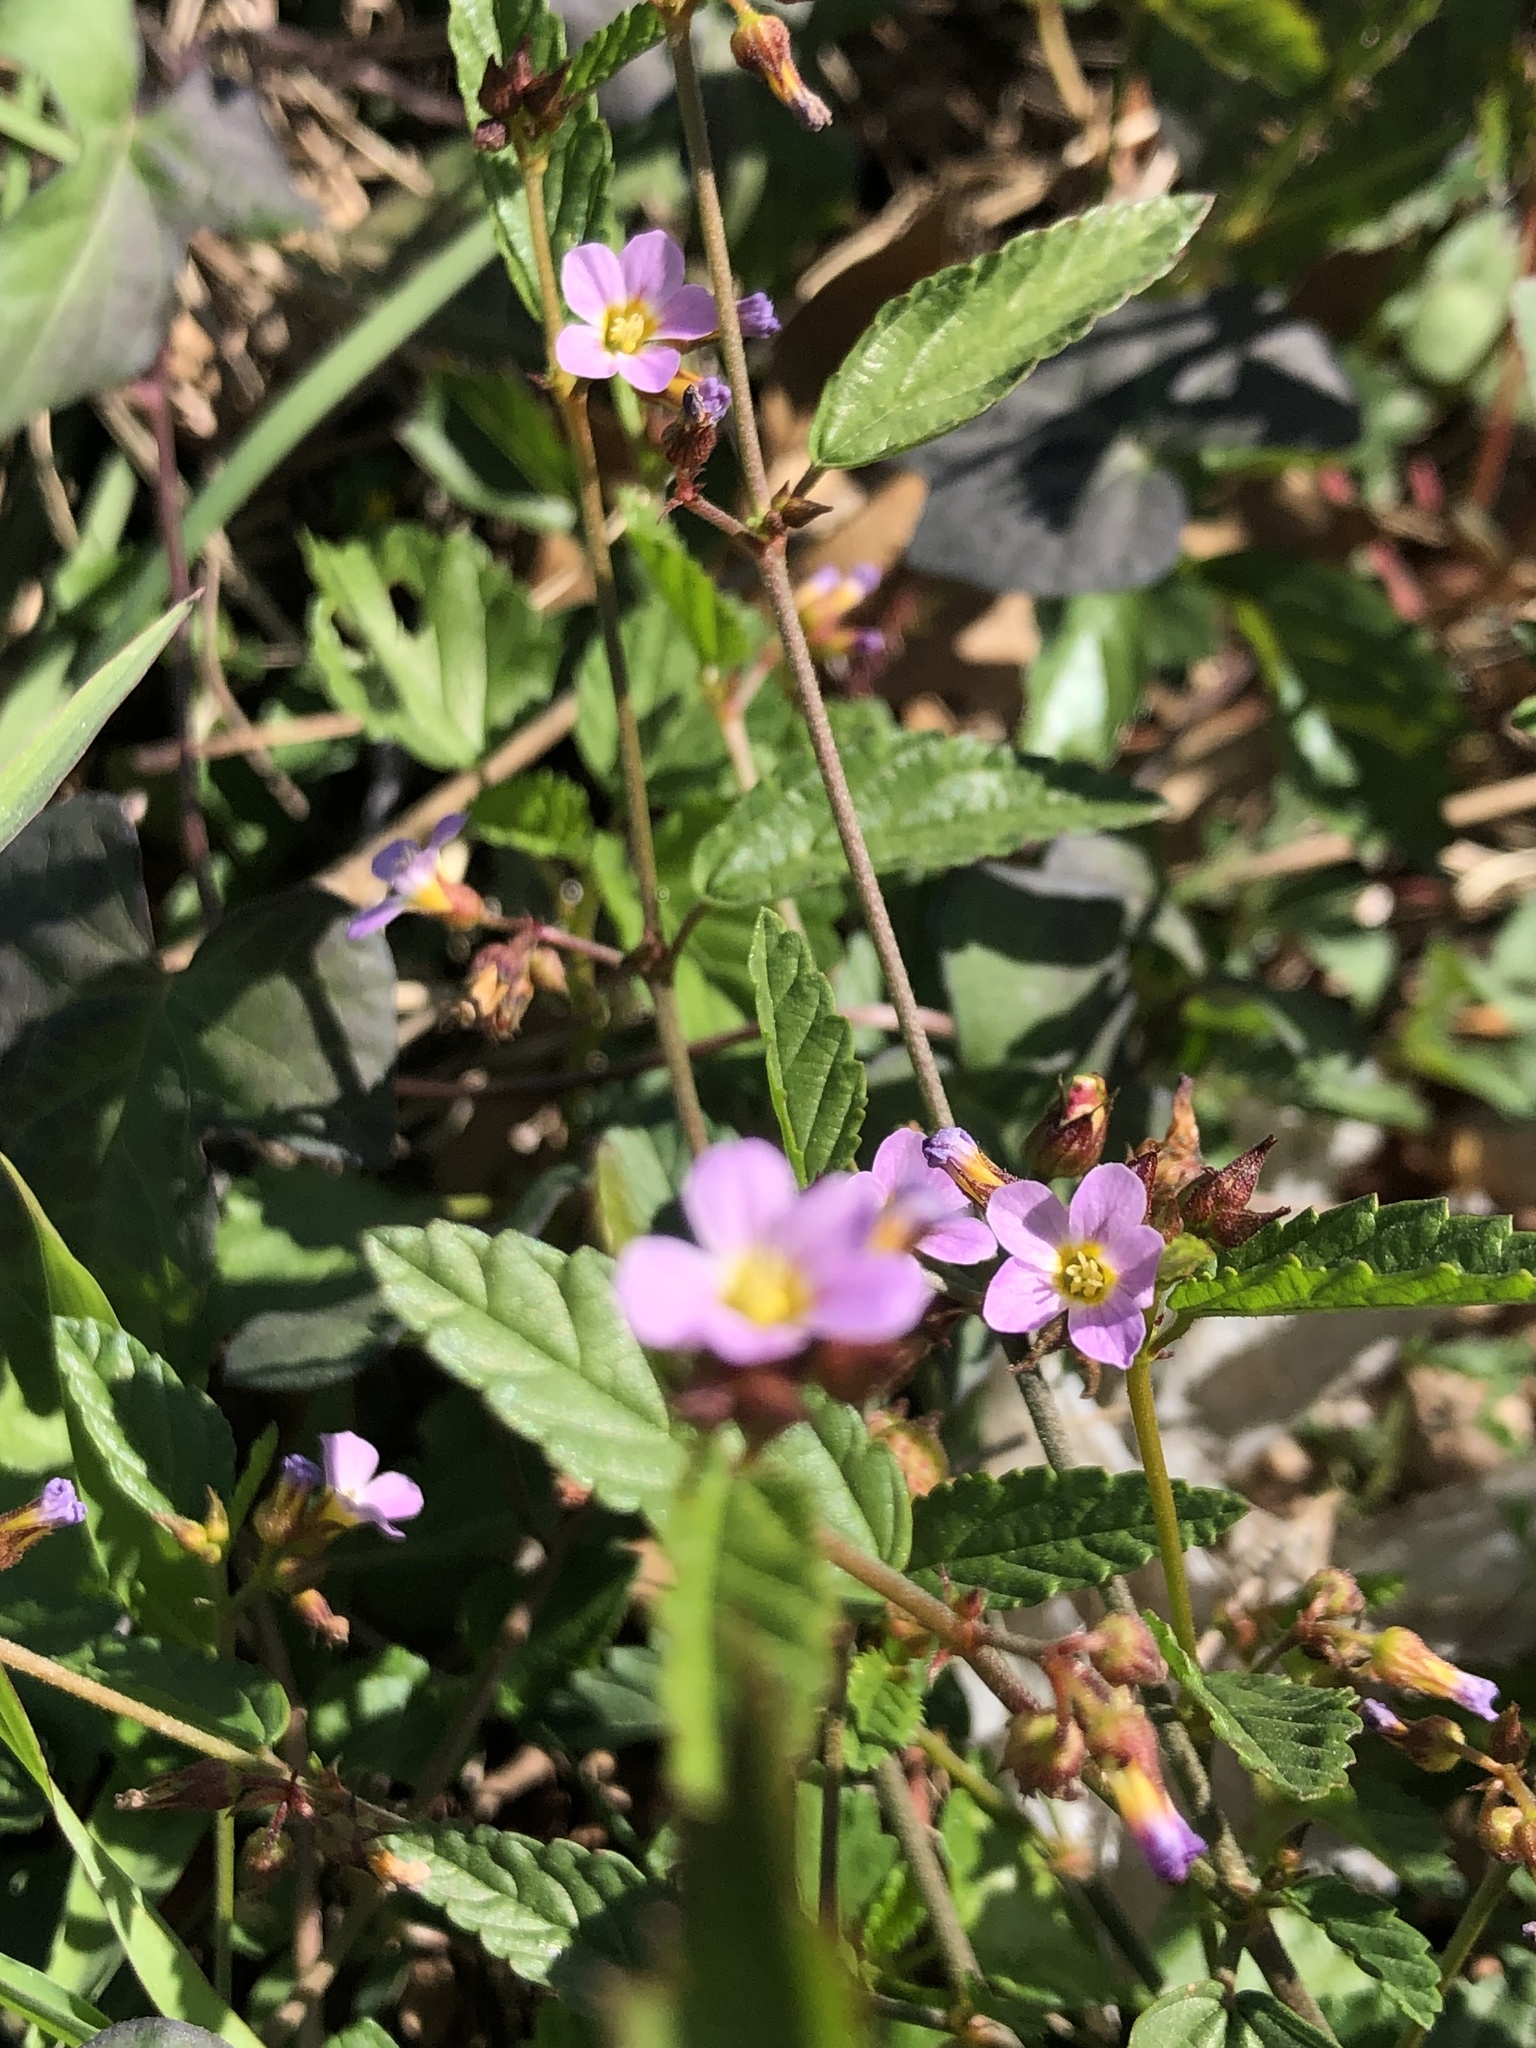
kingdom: Plantae
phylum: Tracheophyta
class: Magnoliopsida
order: Malvales
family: Malvaceae
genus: Melochia
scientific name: Melochia pyramidata
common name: Pyramidflower
